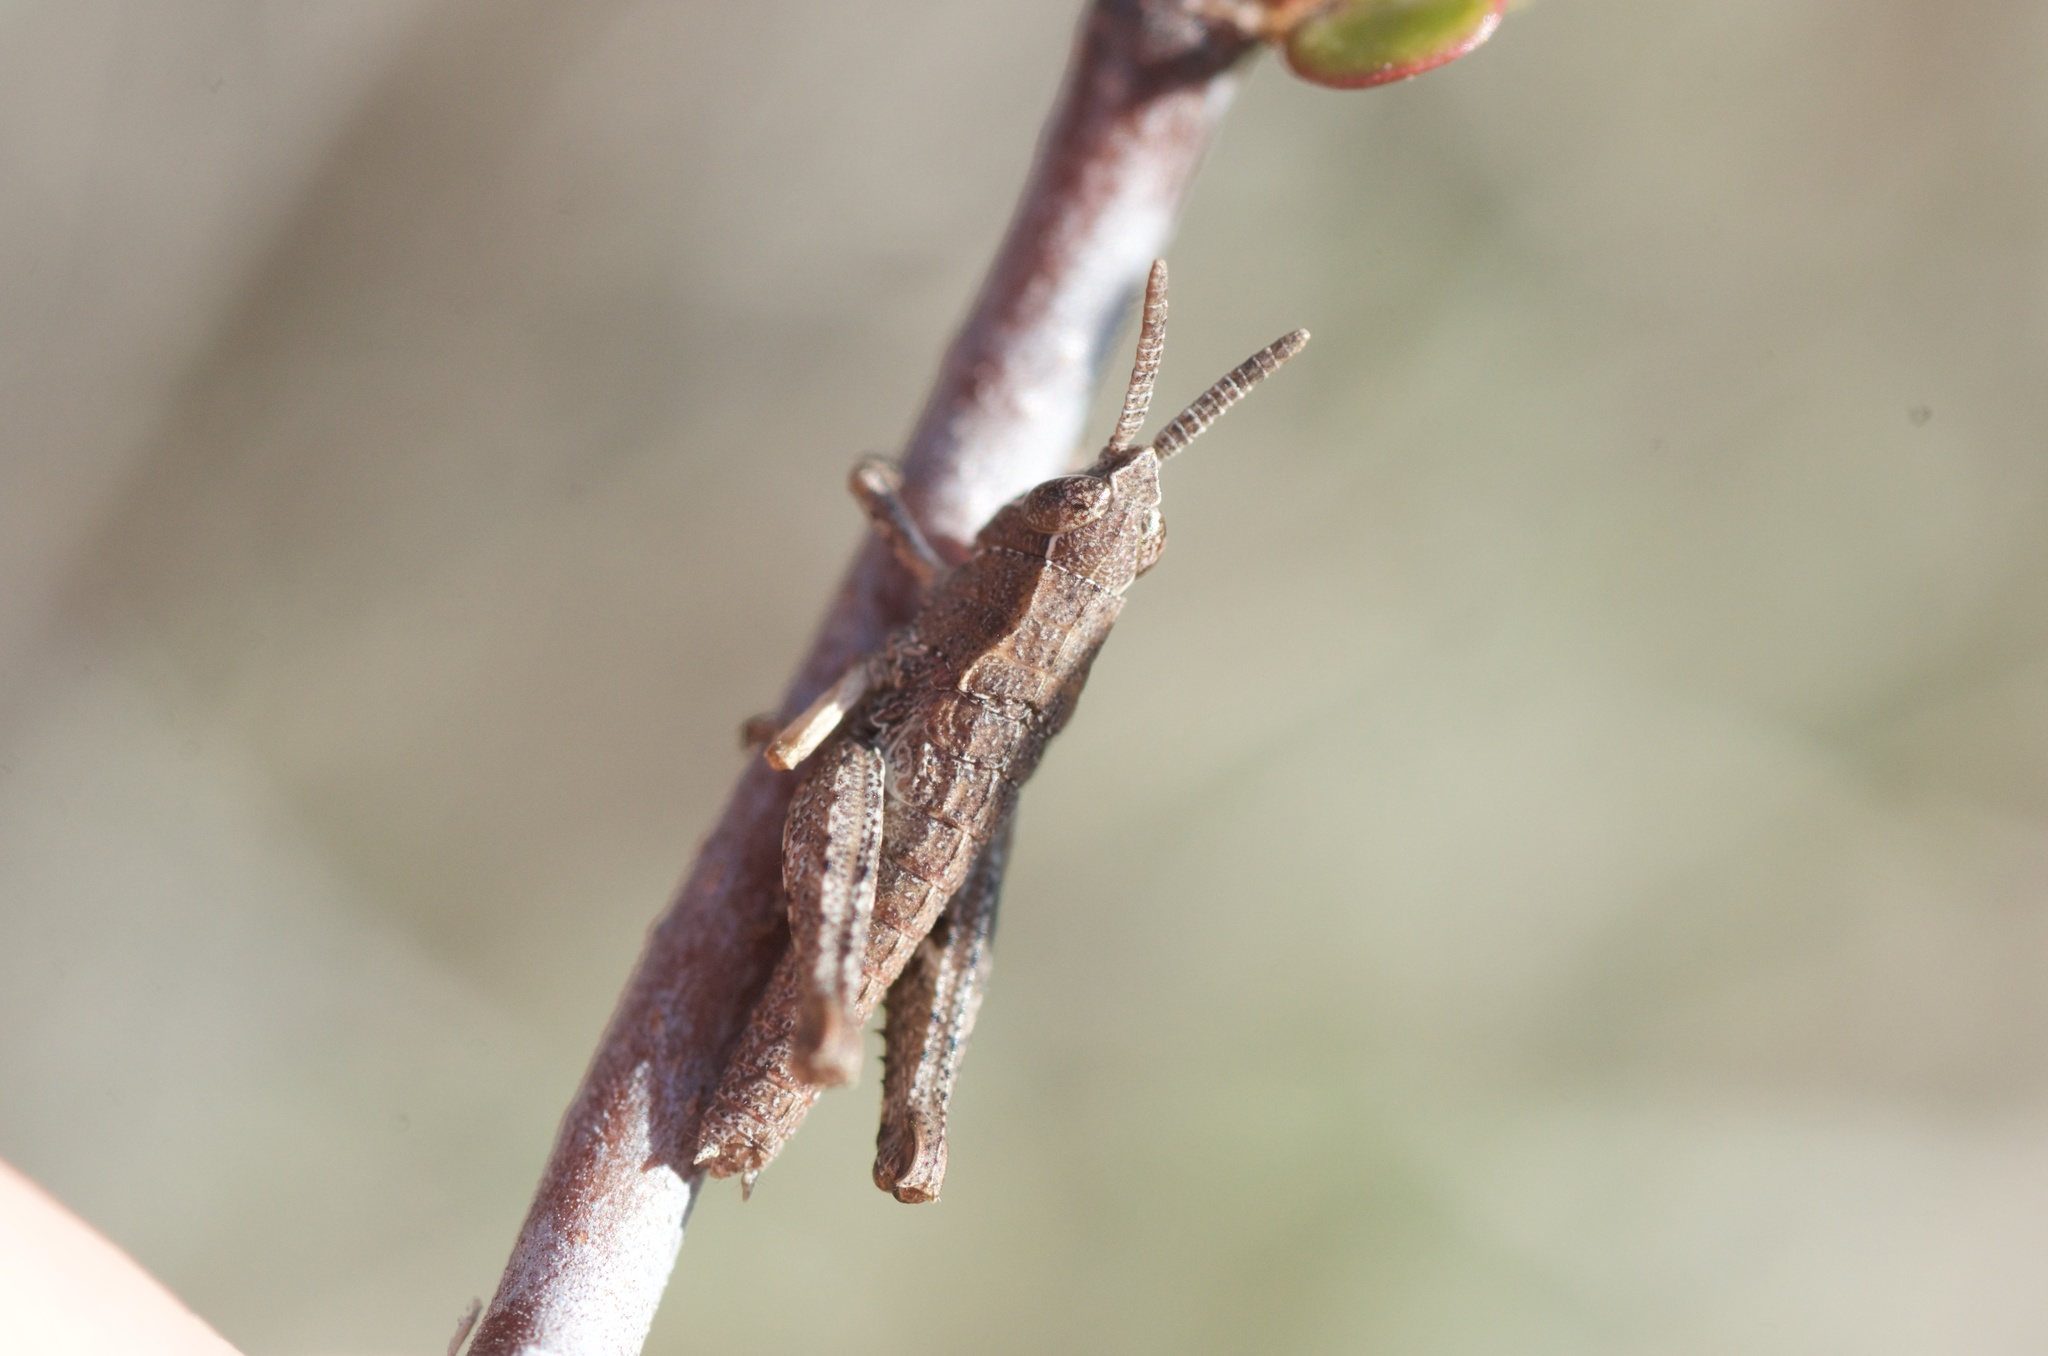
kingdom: Animalia
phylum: Arthropoda
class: Insecta
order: Orthoptera
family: Acrididae
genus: Phaulacridium
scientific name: Phaulacridium marginale
